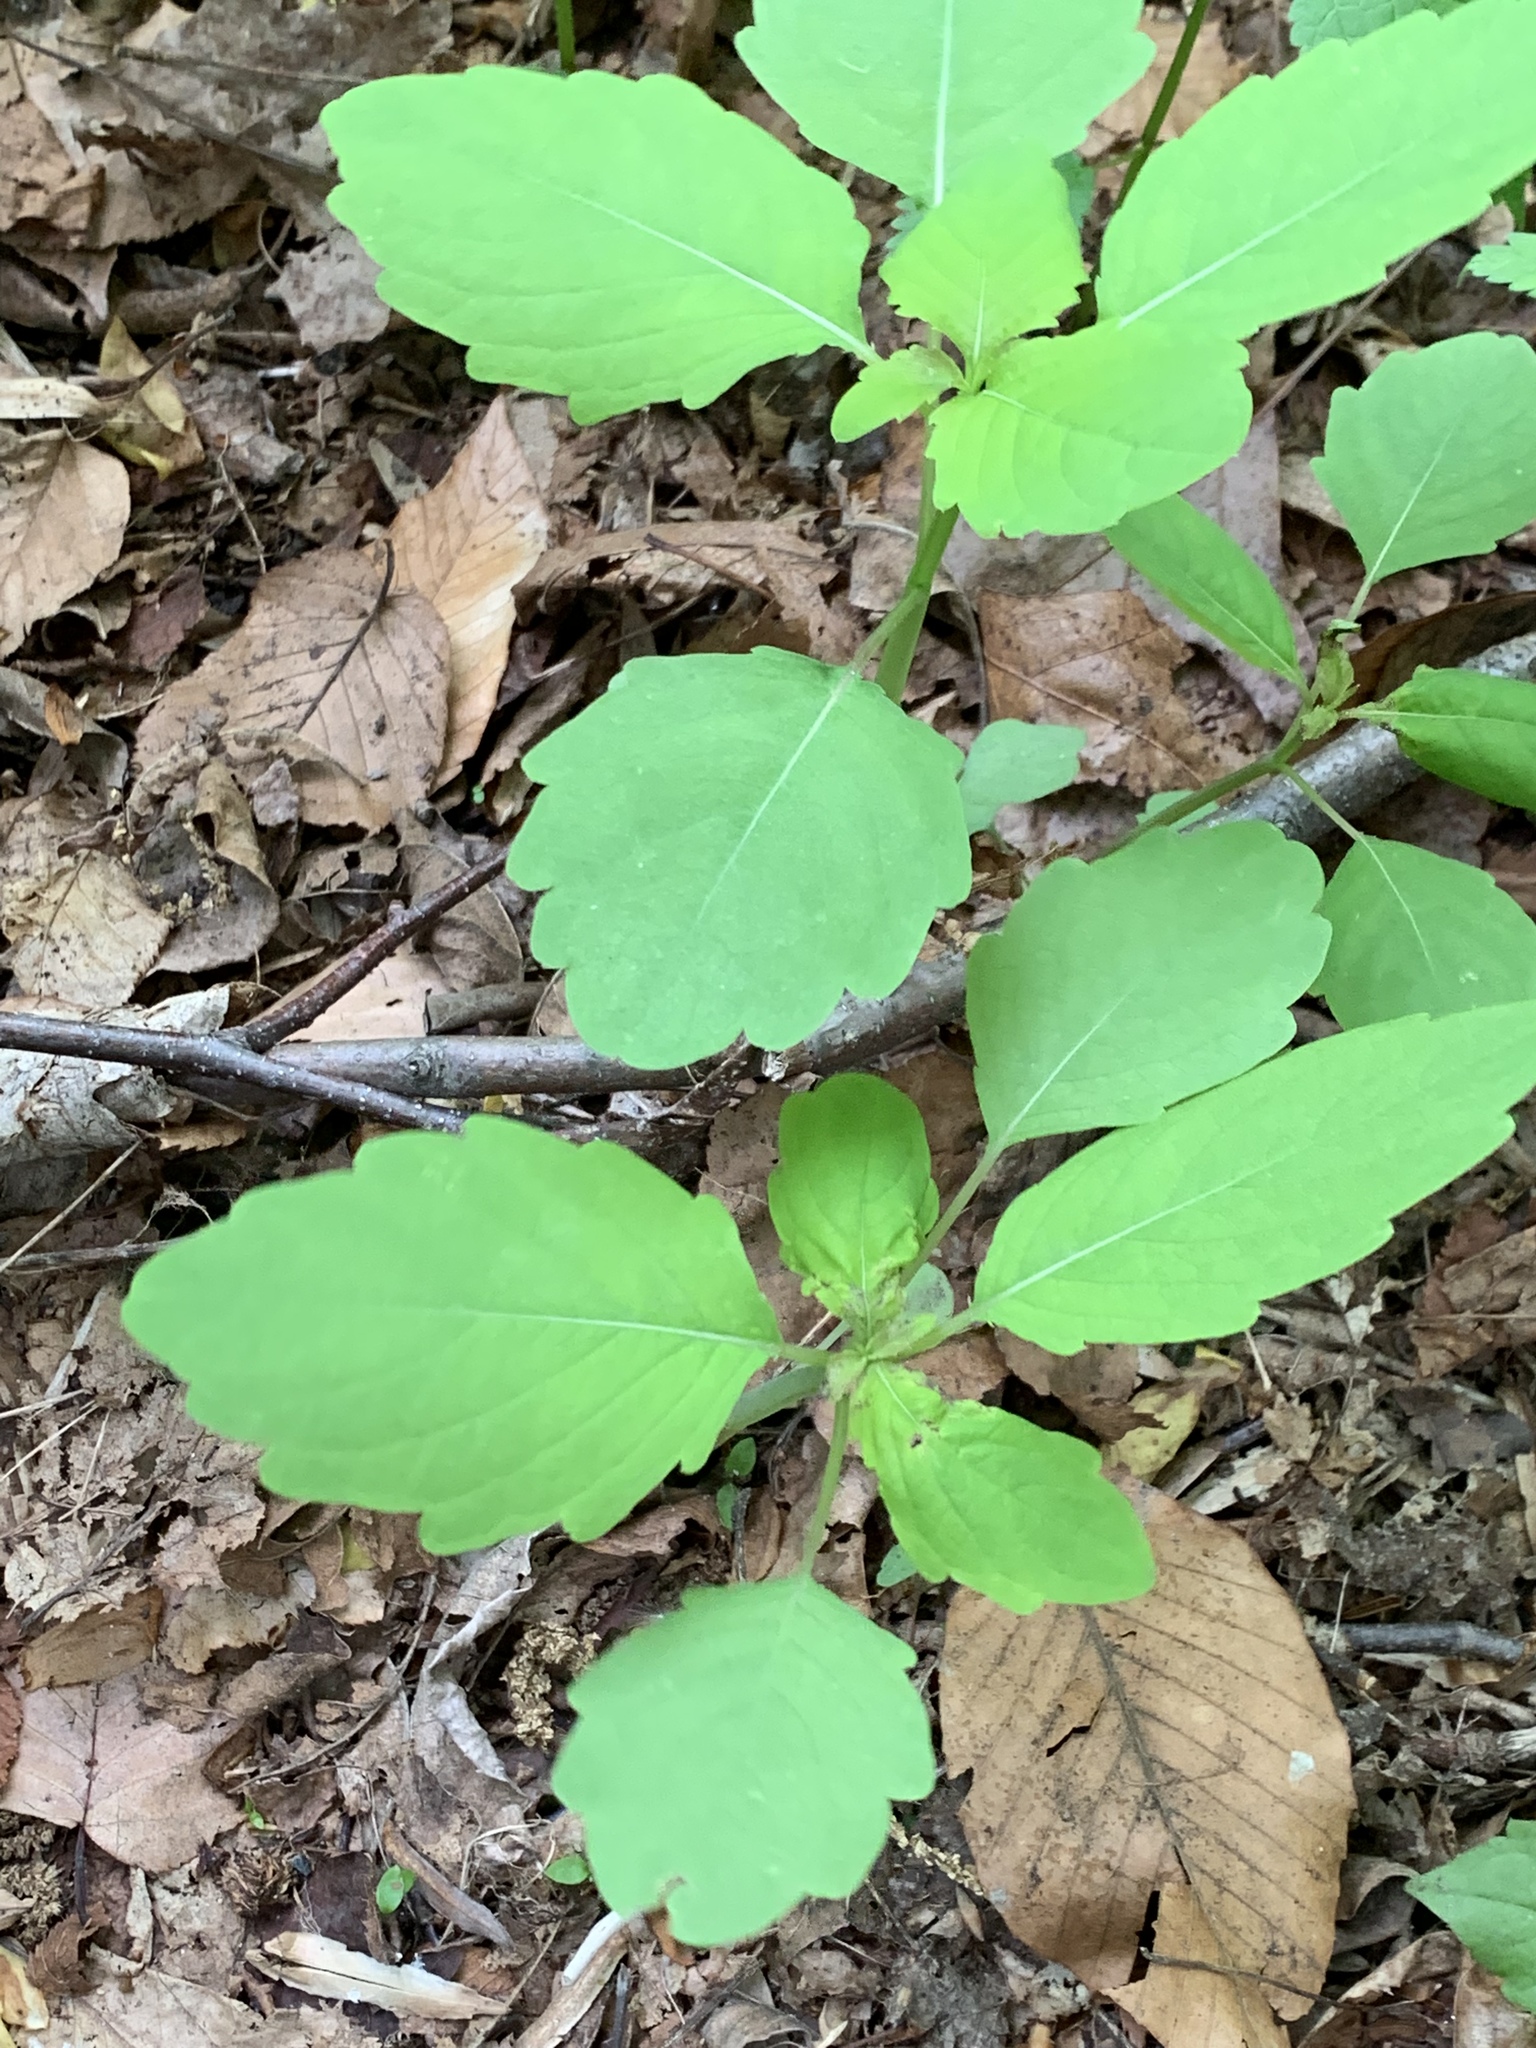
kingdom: Plantae
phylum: Tracheophyta
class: Magnoliopsida
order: Ericales
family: Balsaminaceae
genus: Impatiens
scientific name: Impatiens capensis
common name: Orange balsam
